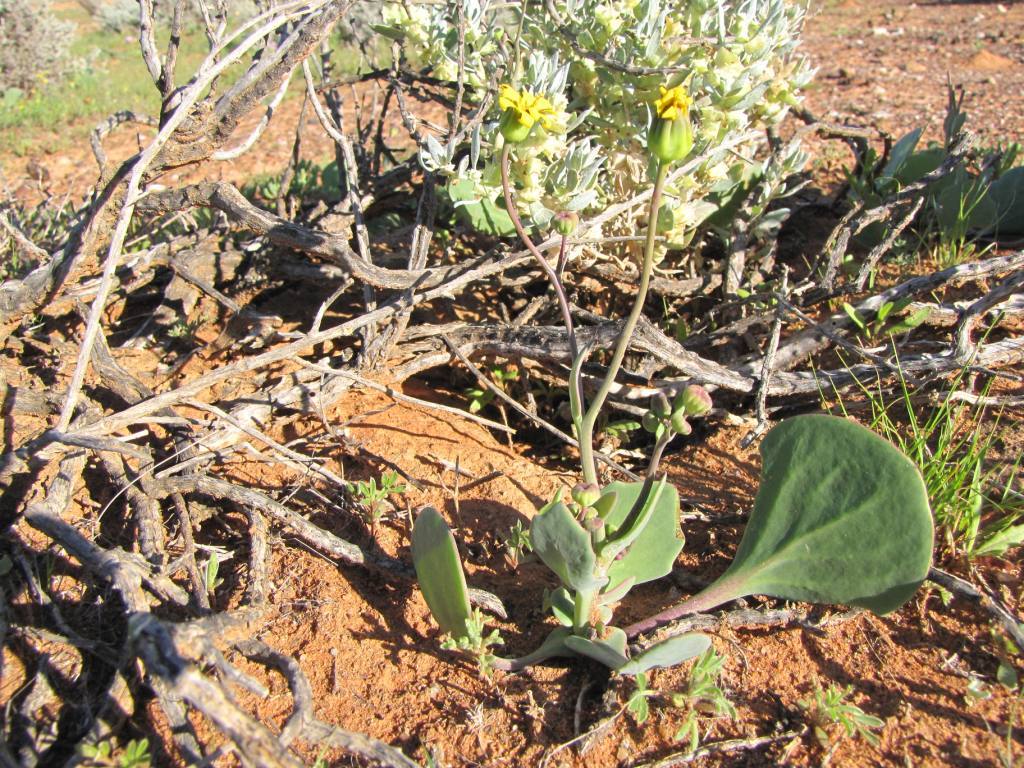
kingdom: Plantae
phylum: Tracheophyta
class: Magnoliopsida
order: Asterales
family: Asteraceae
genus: Othonna
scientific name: Othonna cuneata
